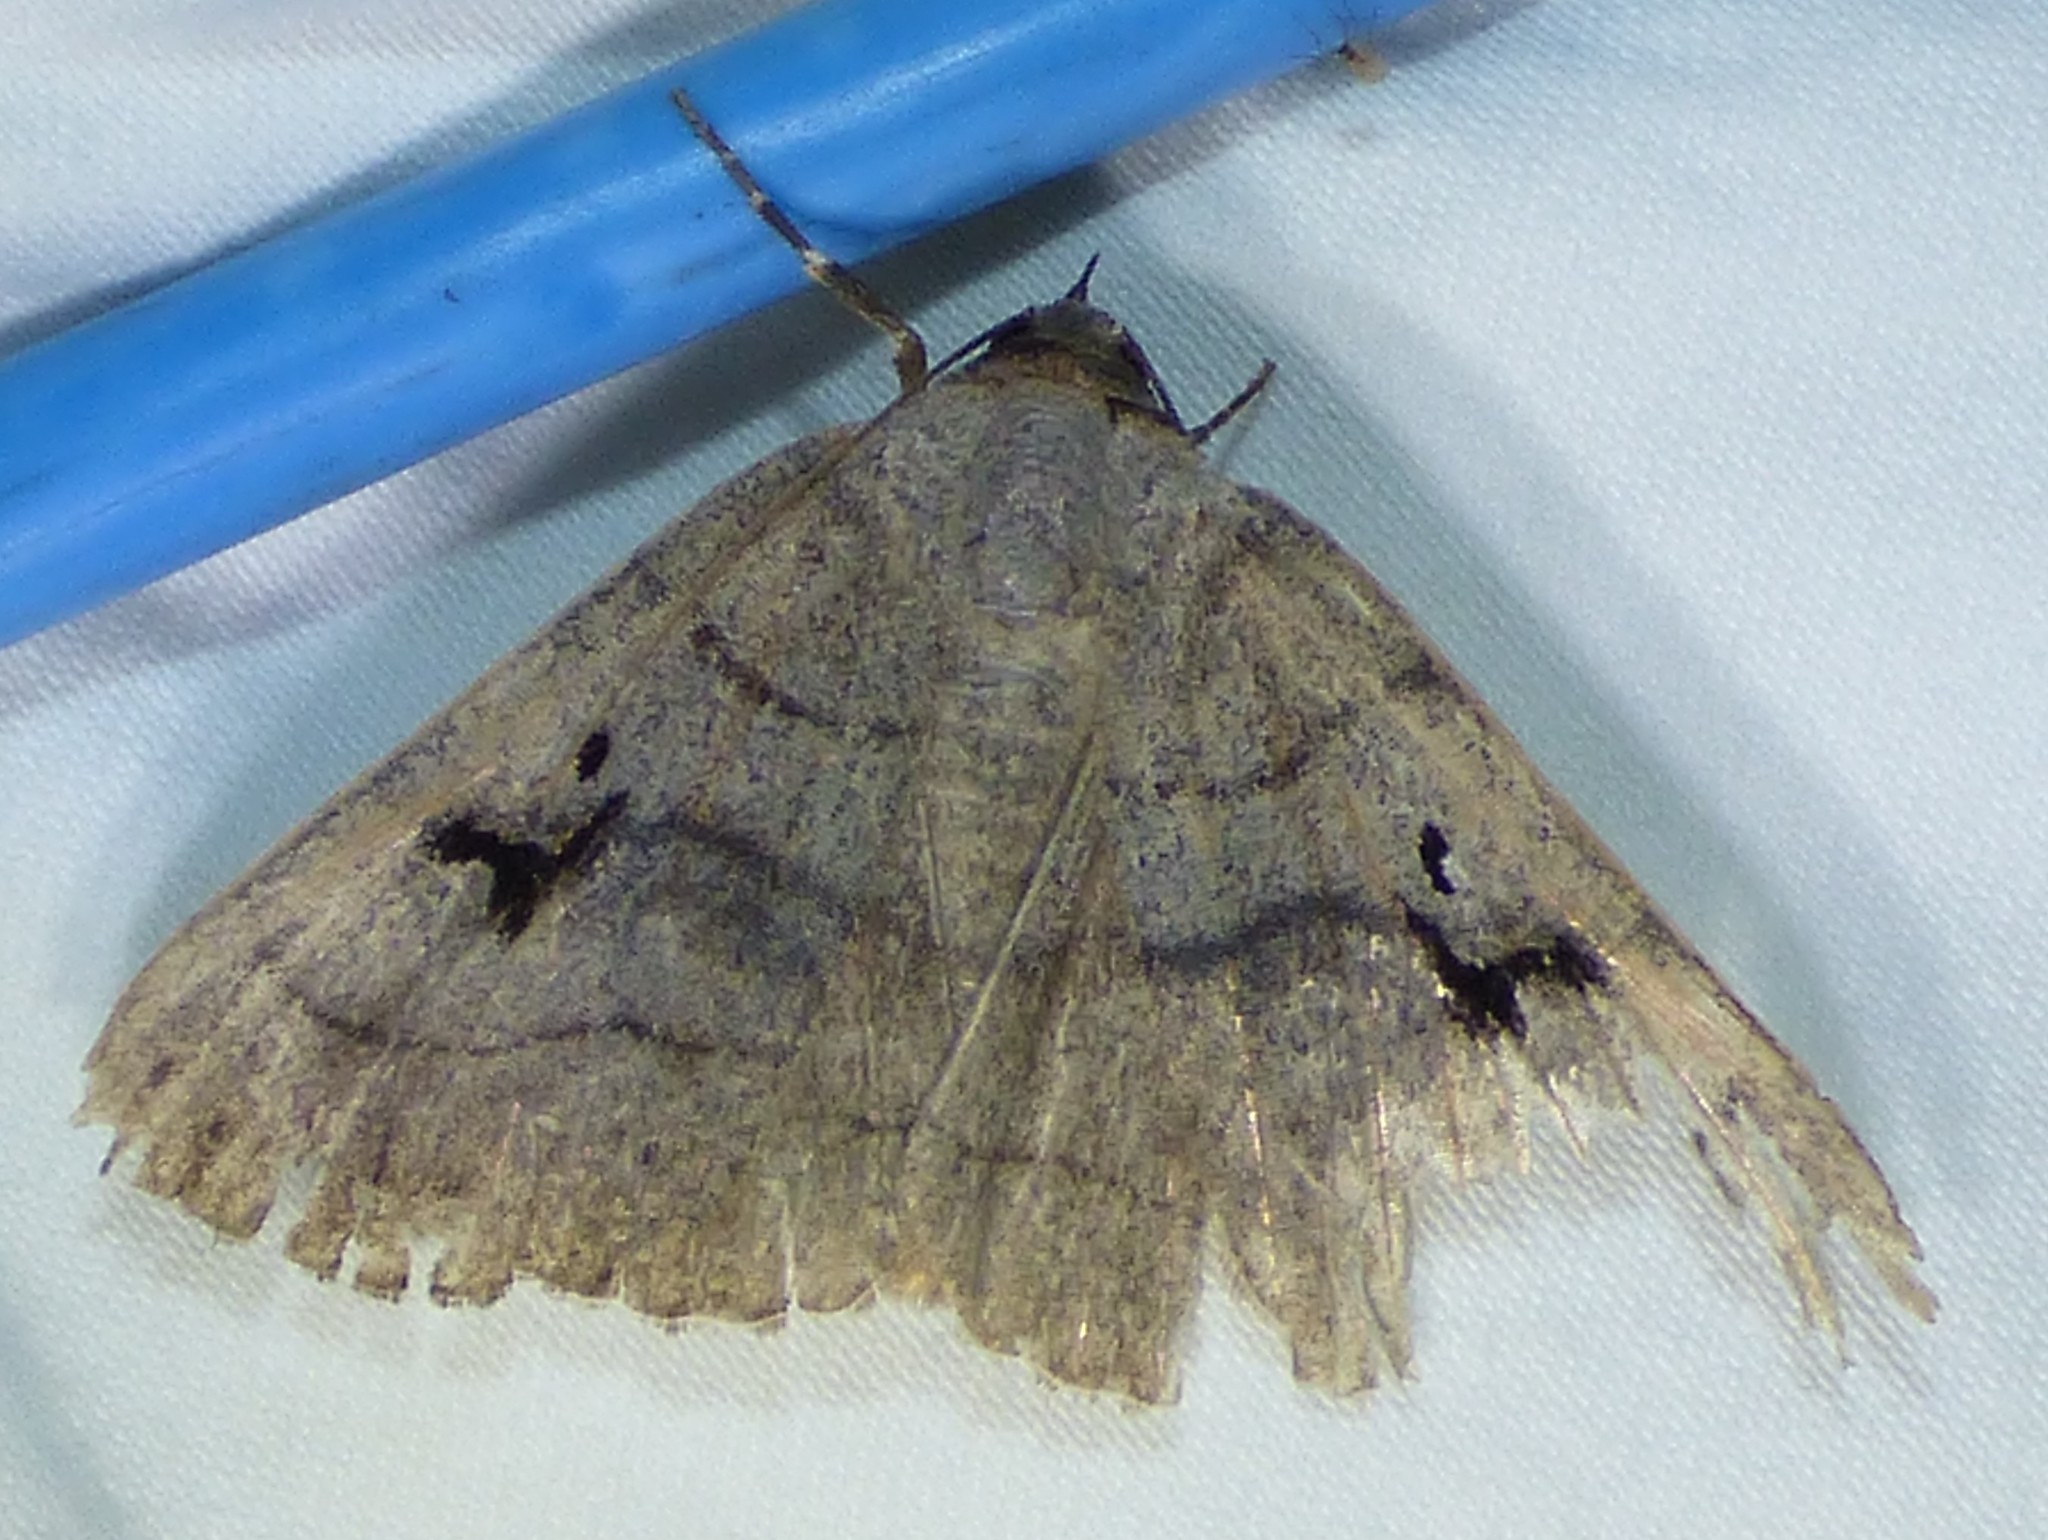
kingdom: Animalia
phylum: Arthropoda
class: Insecta
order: Lepidoptera
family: Erebidae
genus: Panopoda
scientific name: Panopoda carneicosta
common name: Brown panopoda moth
